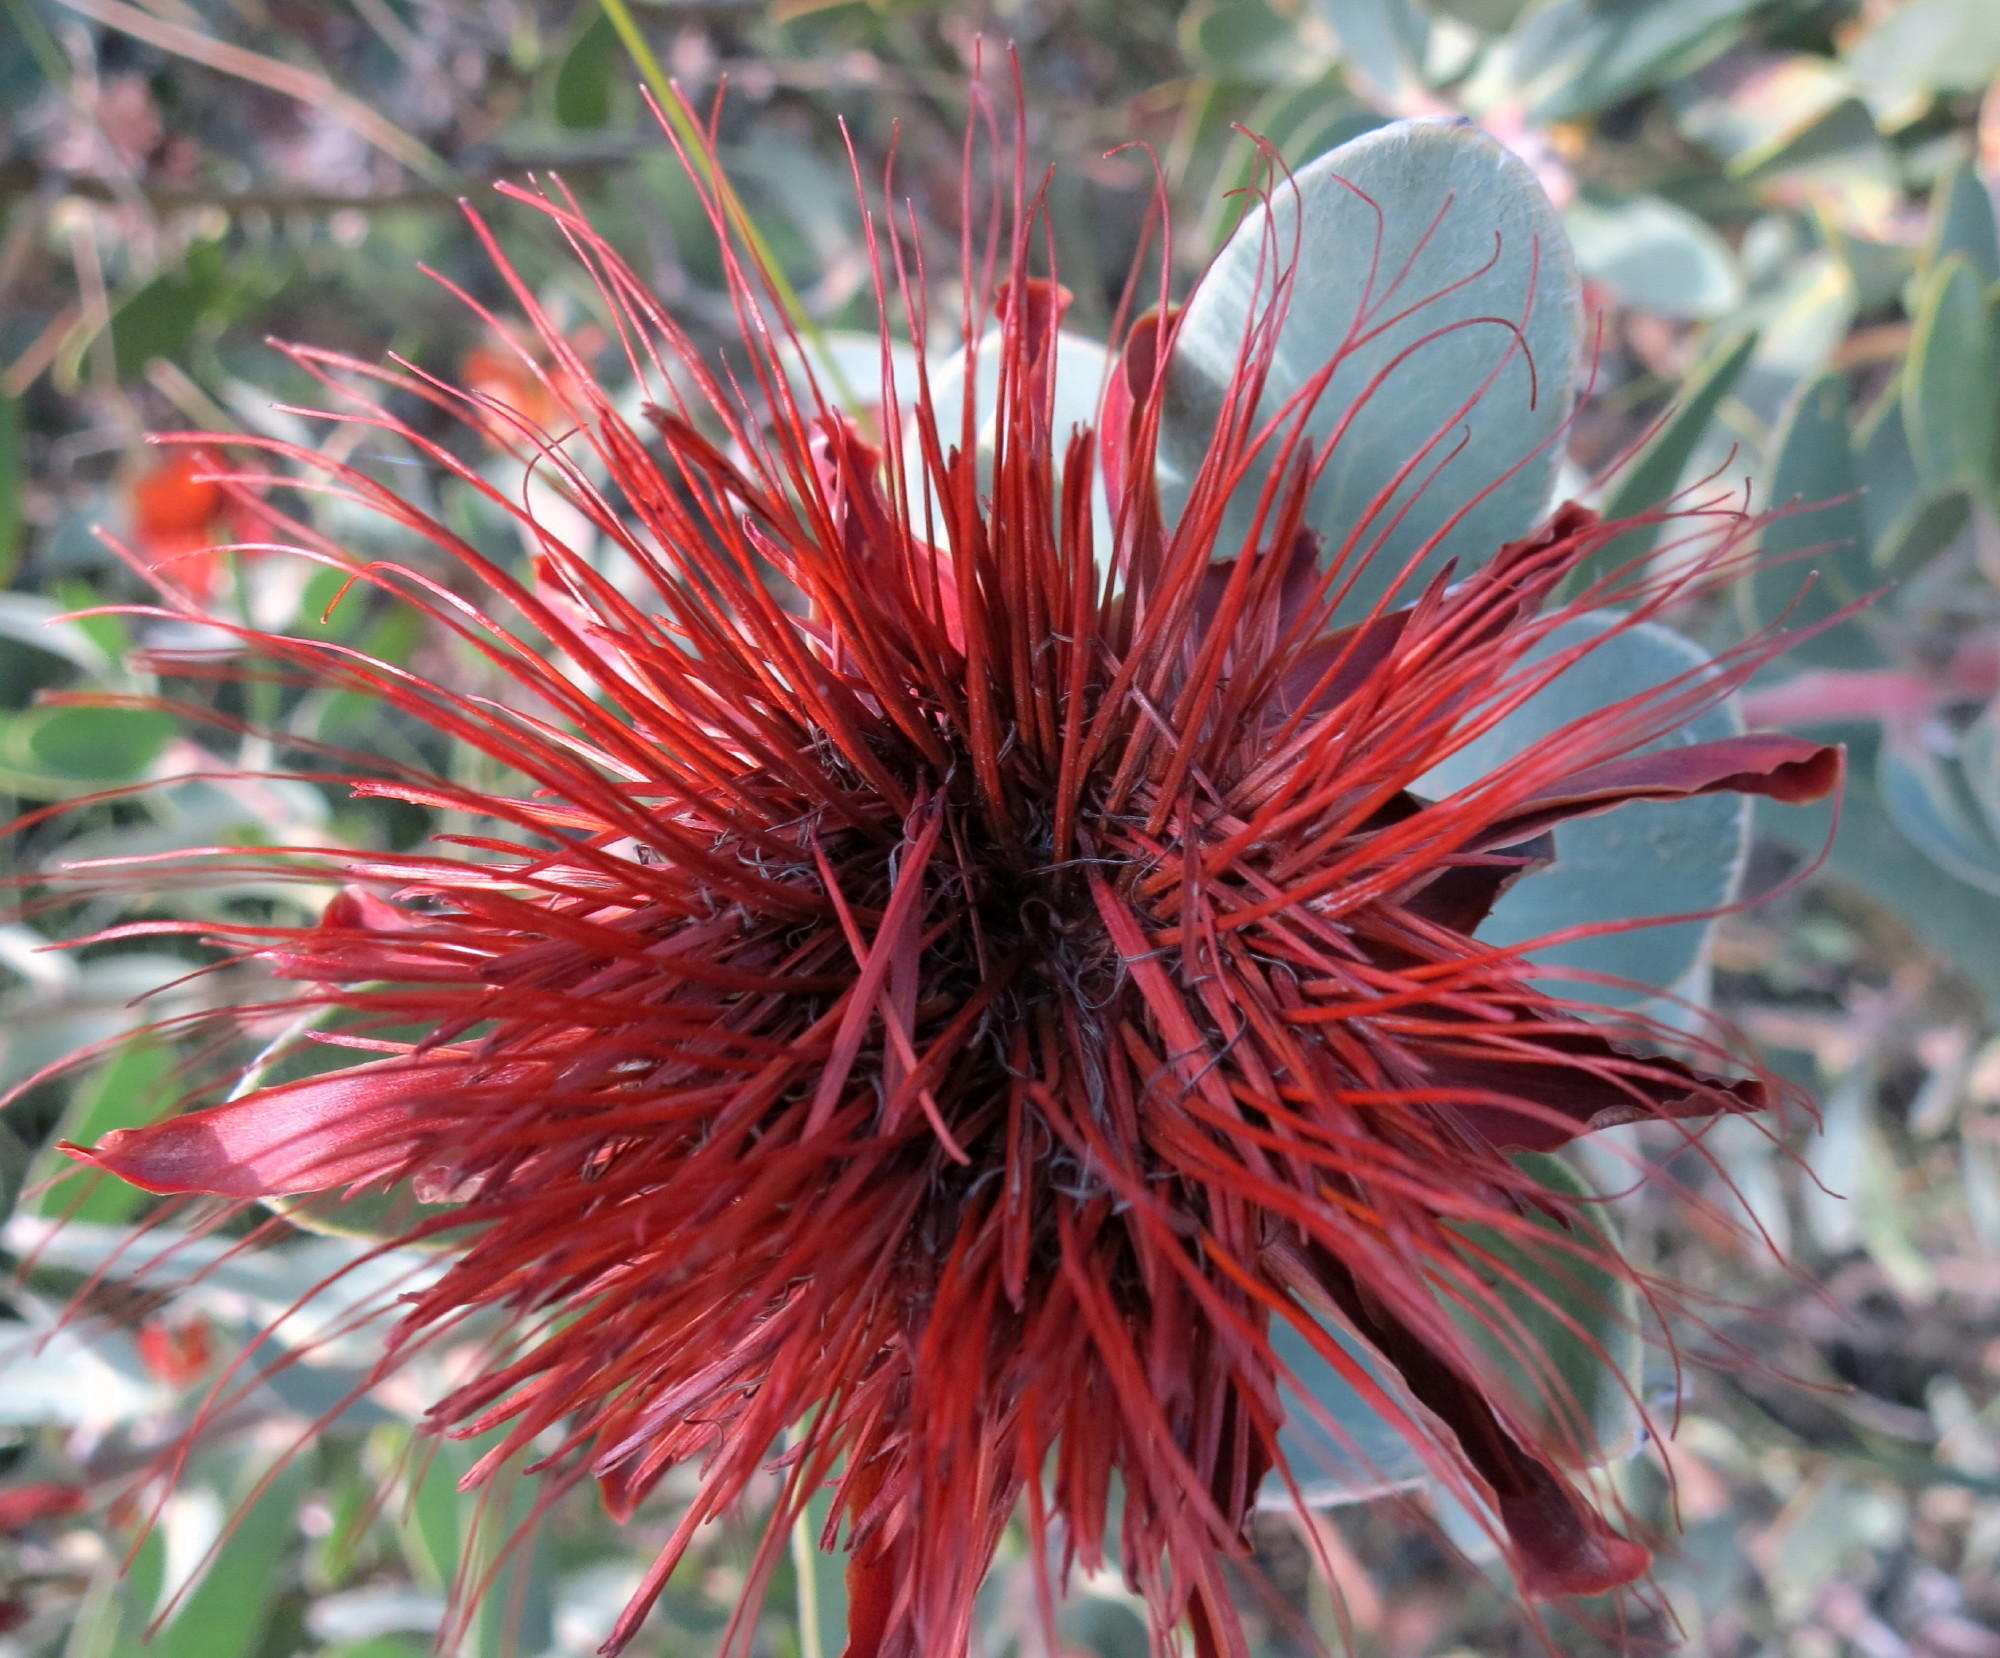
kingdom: Plantae
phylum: Tracheophyta
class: Magnoliopsida
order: Proteales
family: Proteaceae
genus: Protea
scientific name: Protea punctata
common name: Water sugarbush
